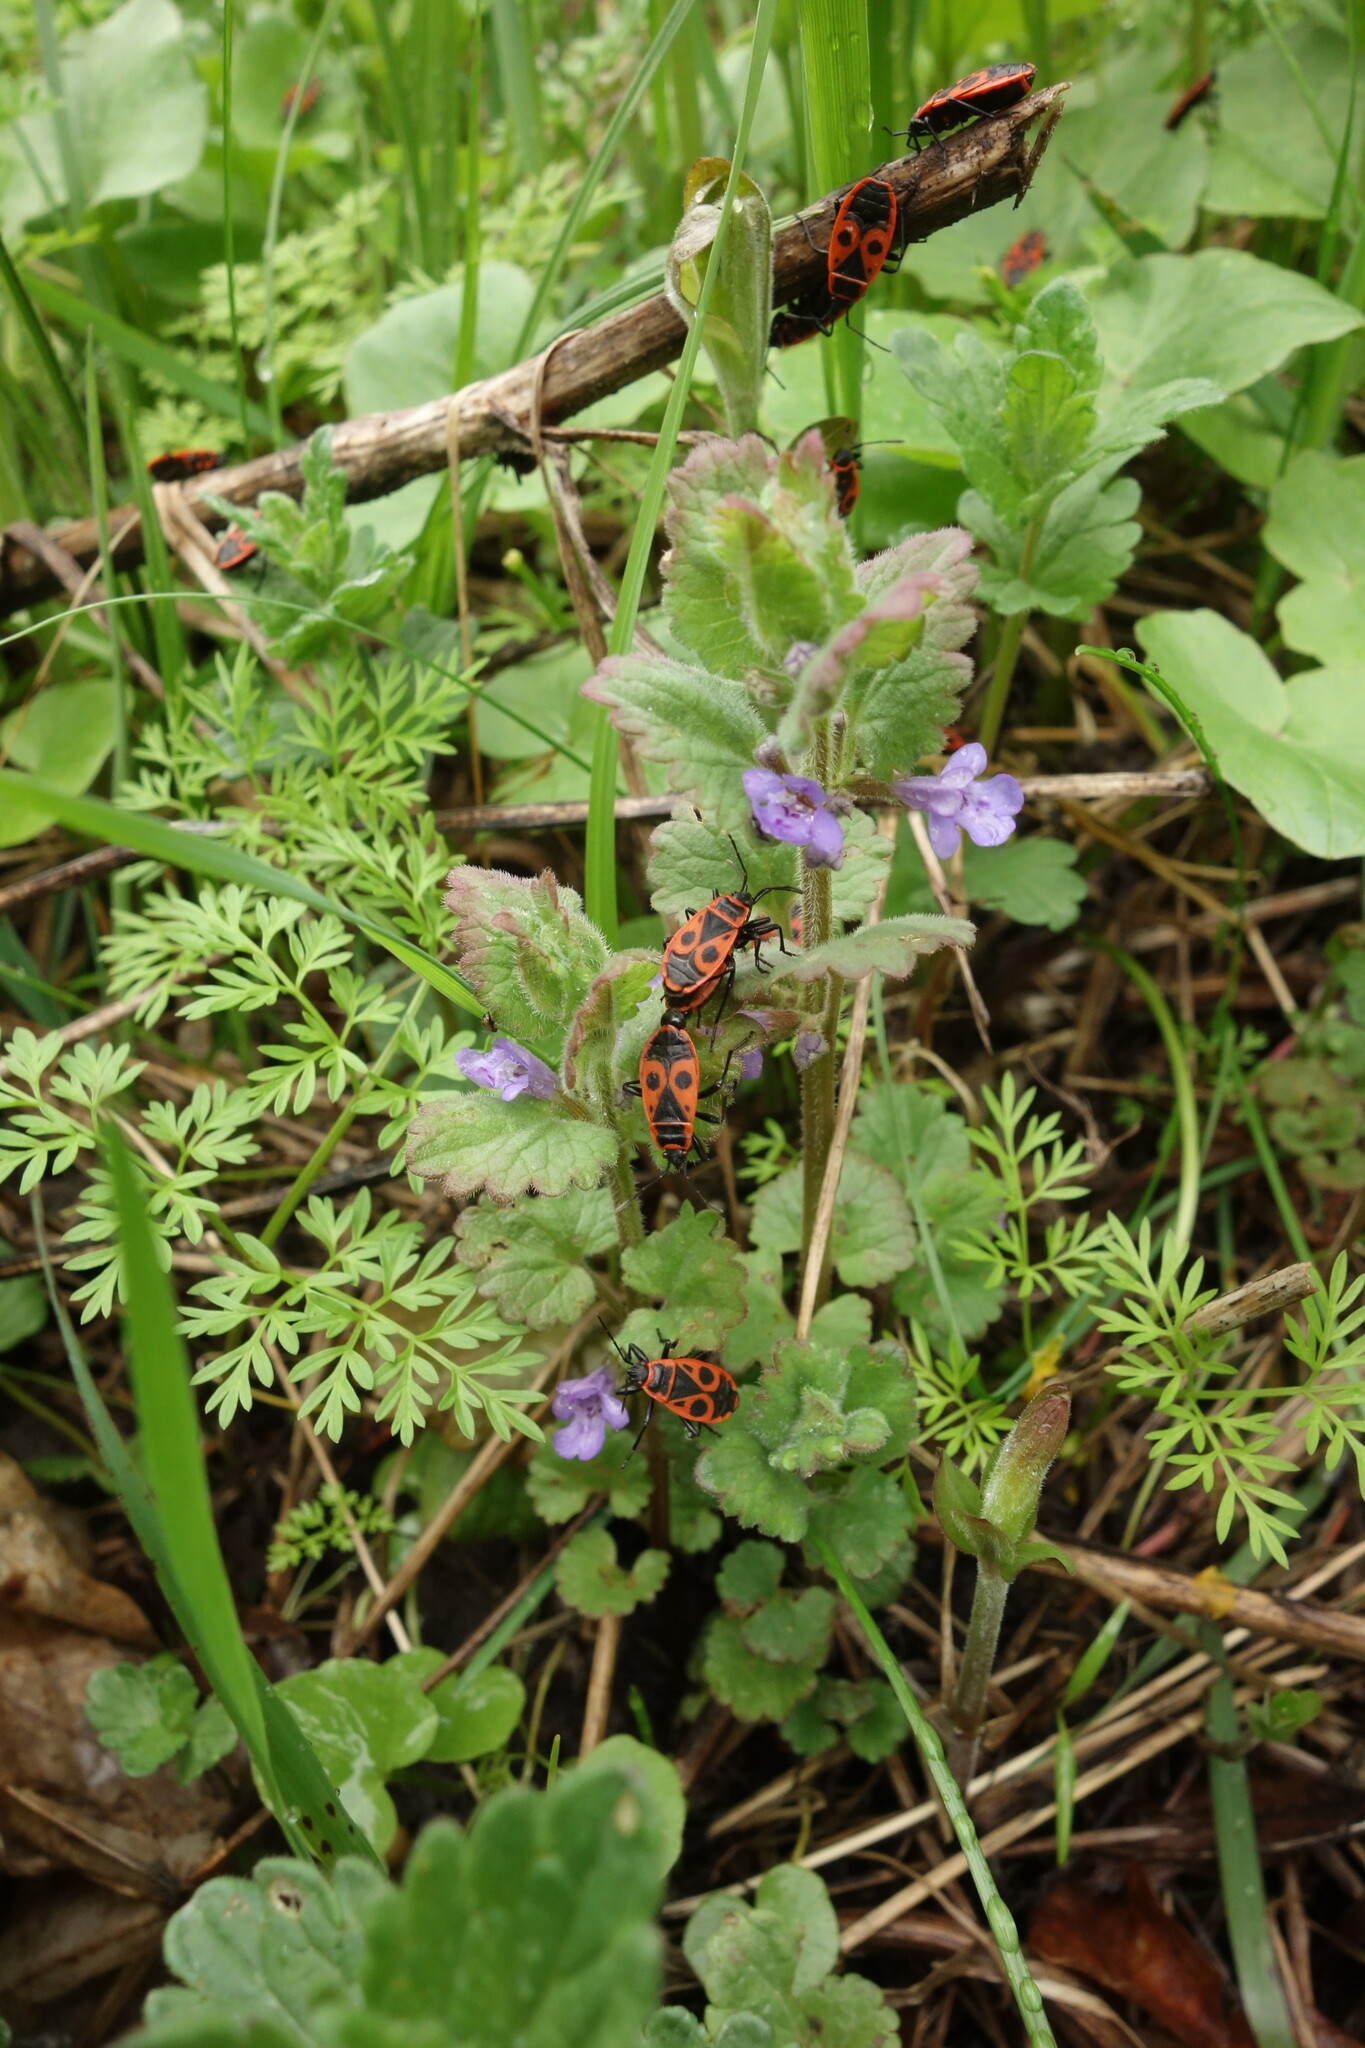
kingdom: Animalia
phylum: Arthropoda
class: Insecta
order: Hemiptera
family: Pyrrhocoridae
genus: Pyrrhocoris
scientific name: Pyrrhocoris apterus
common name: Firebug
